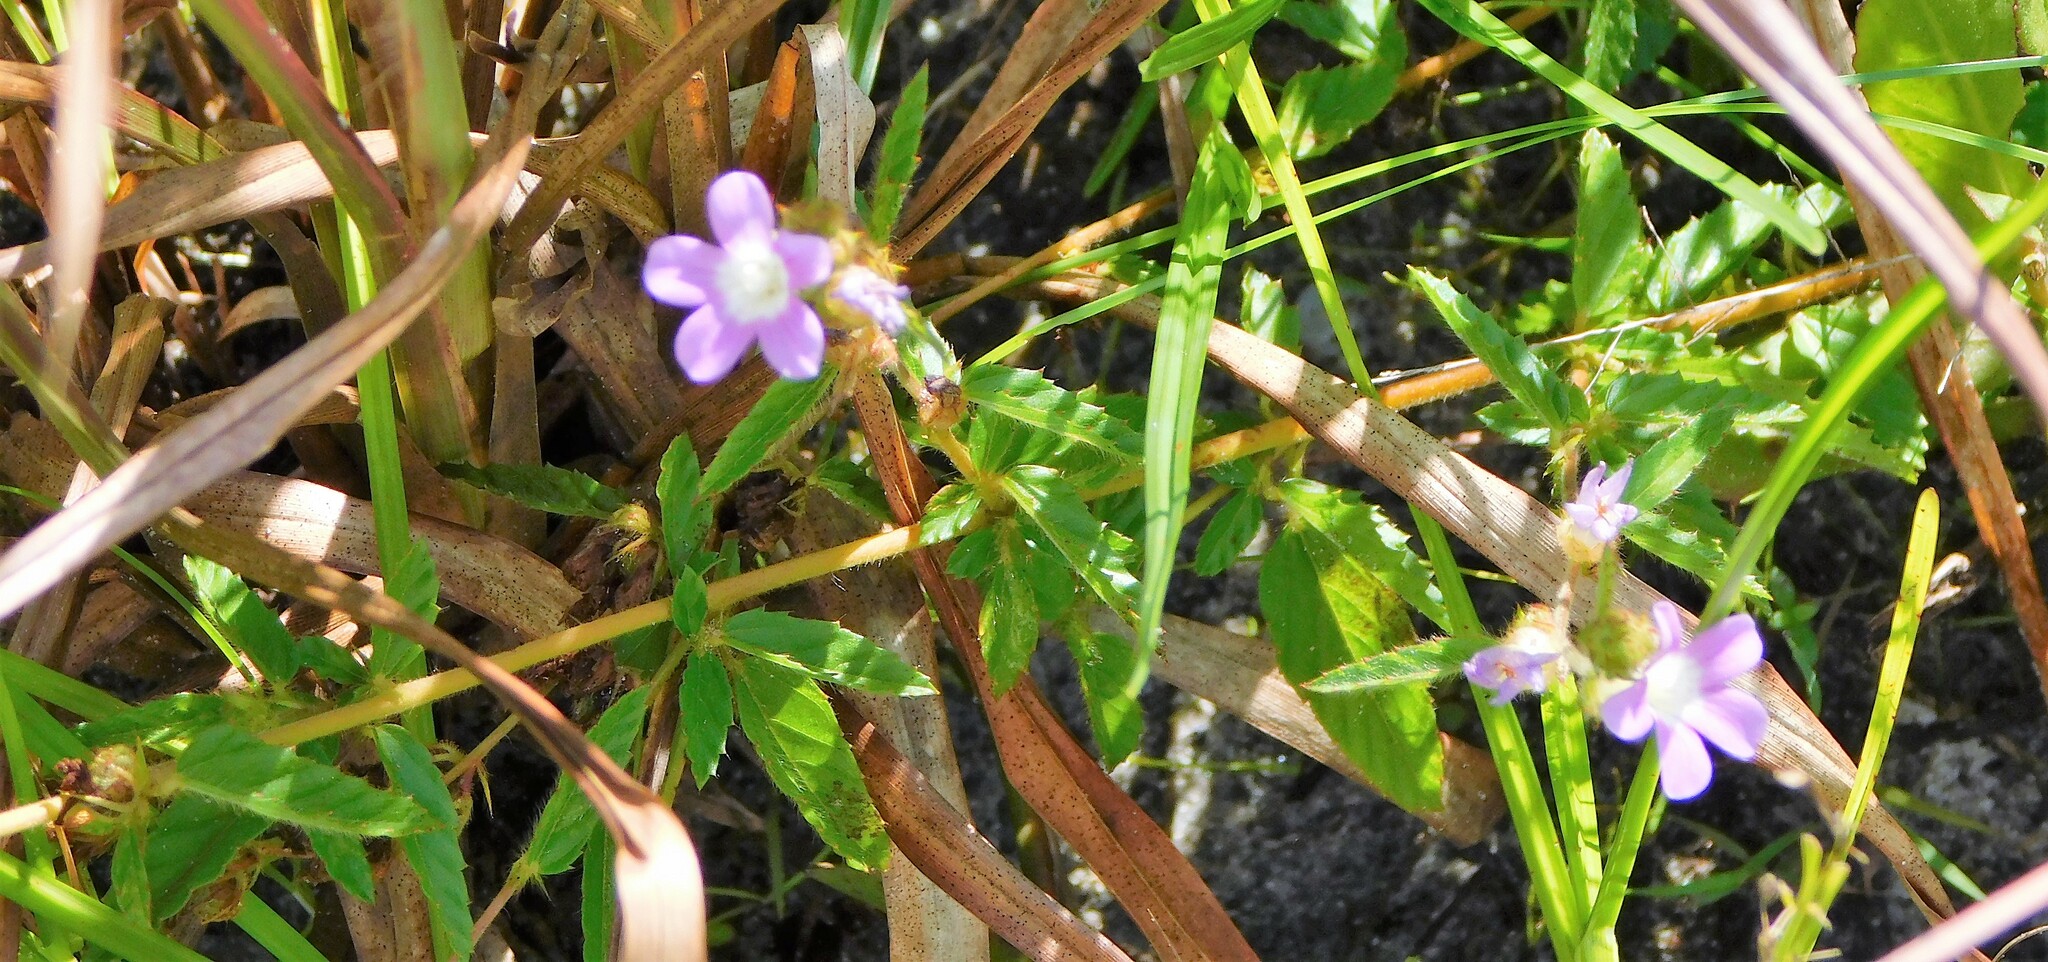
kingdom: Plantae
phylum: Tracheophyta
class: Magnoliopsida
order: Malvales
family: Malvaceae
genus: Melochia
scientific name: Melochia spicata
